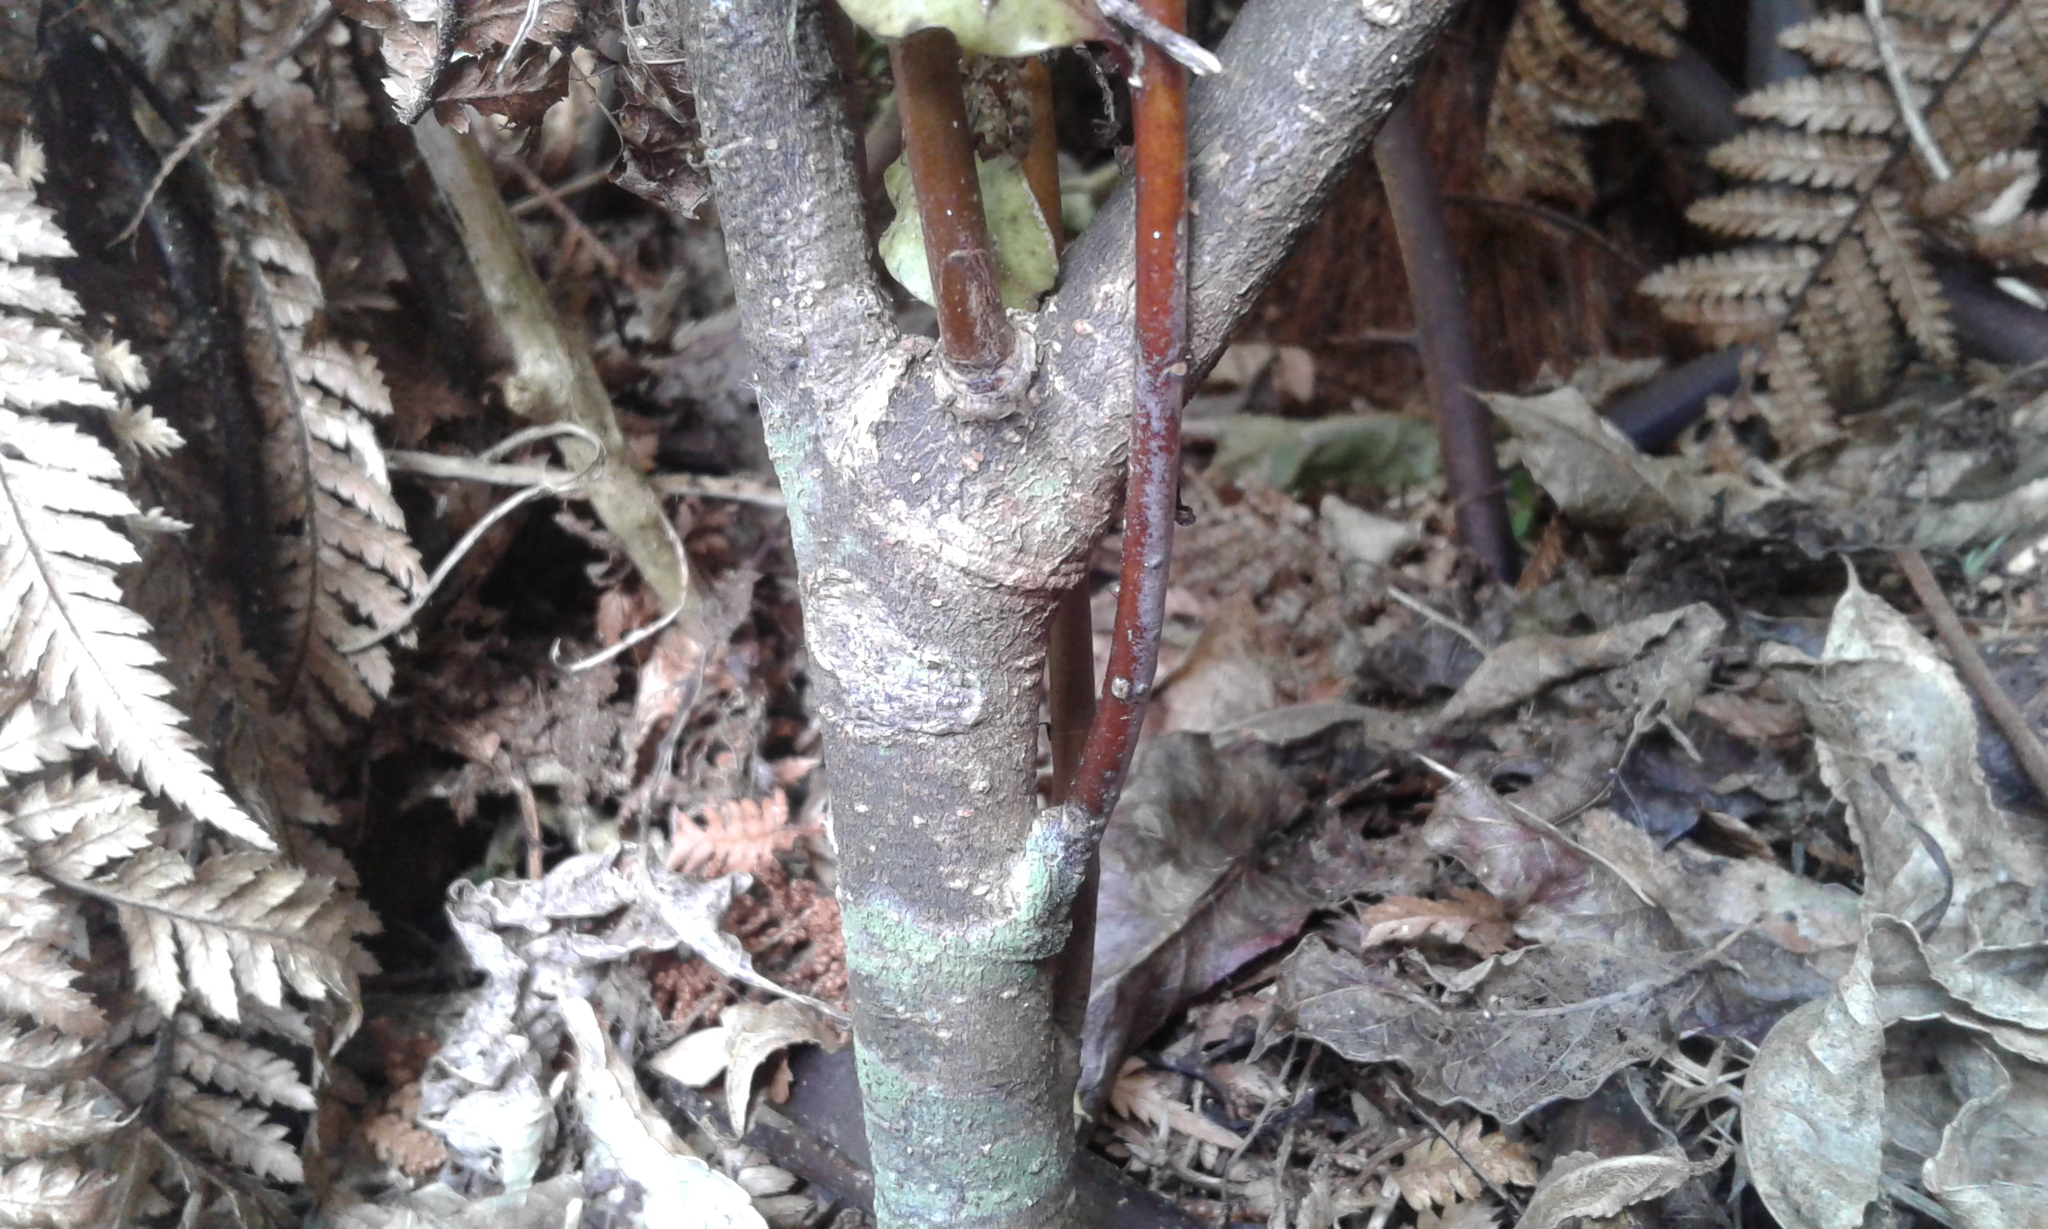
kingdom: Plantae
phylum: Tracheophyta
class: Magnoliopsida
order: Ericales
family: Primulaceae
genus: Myrsine
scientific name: Myrsine australis
